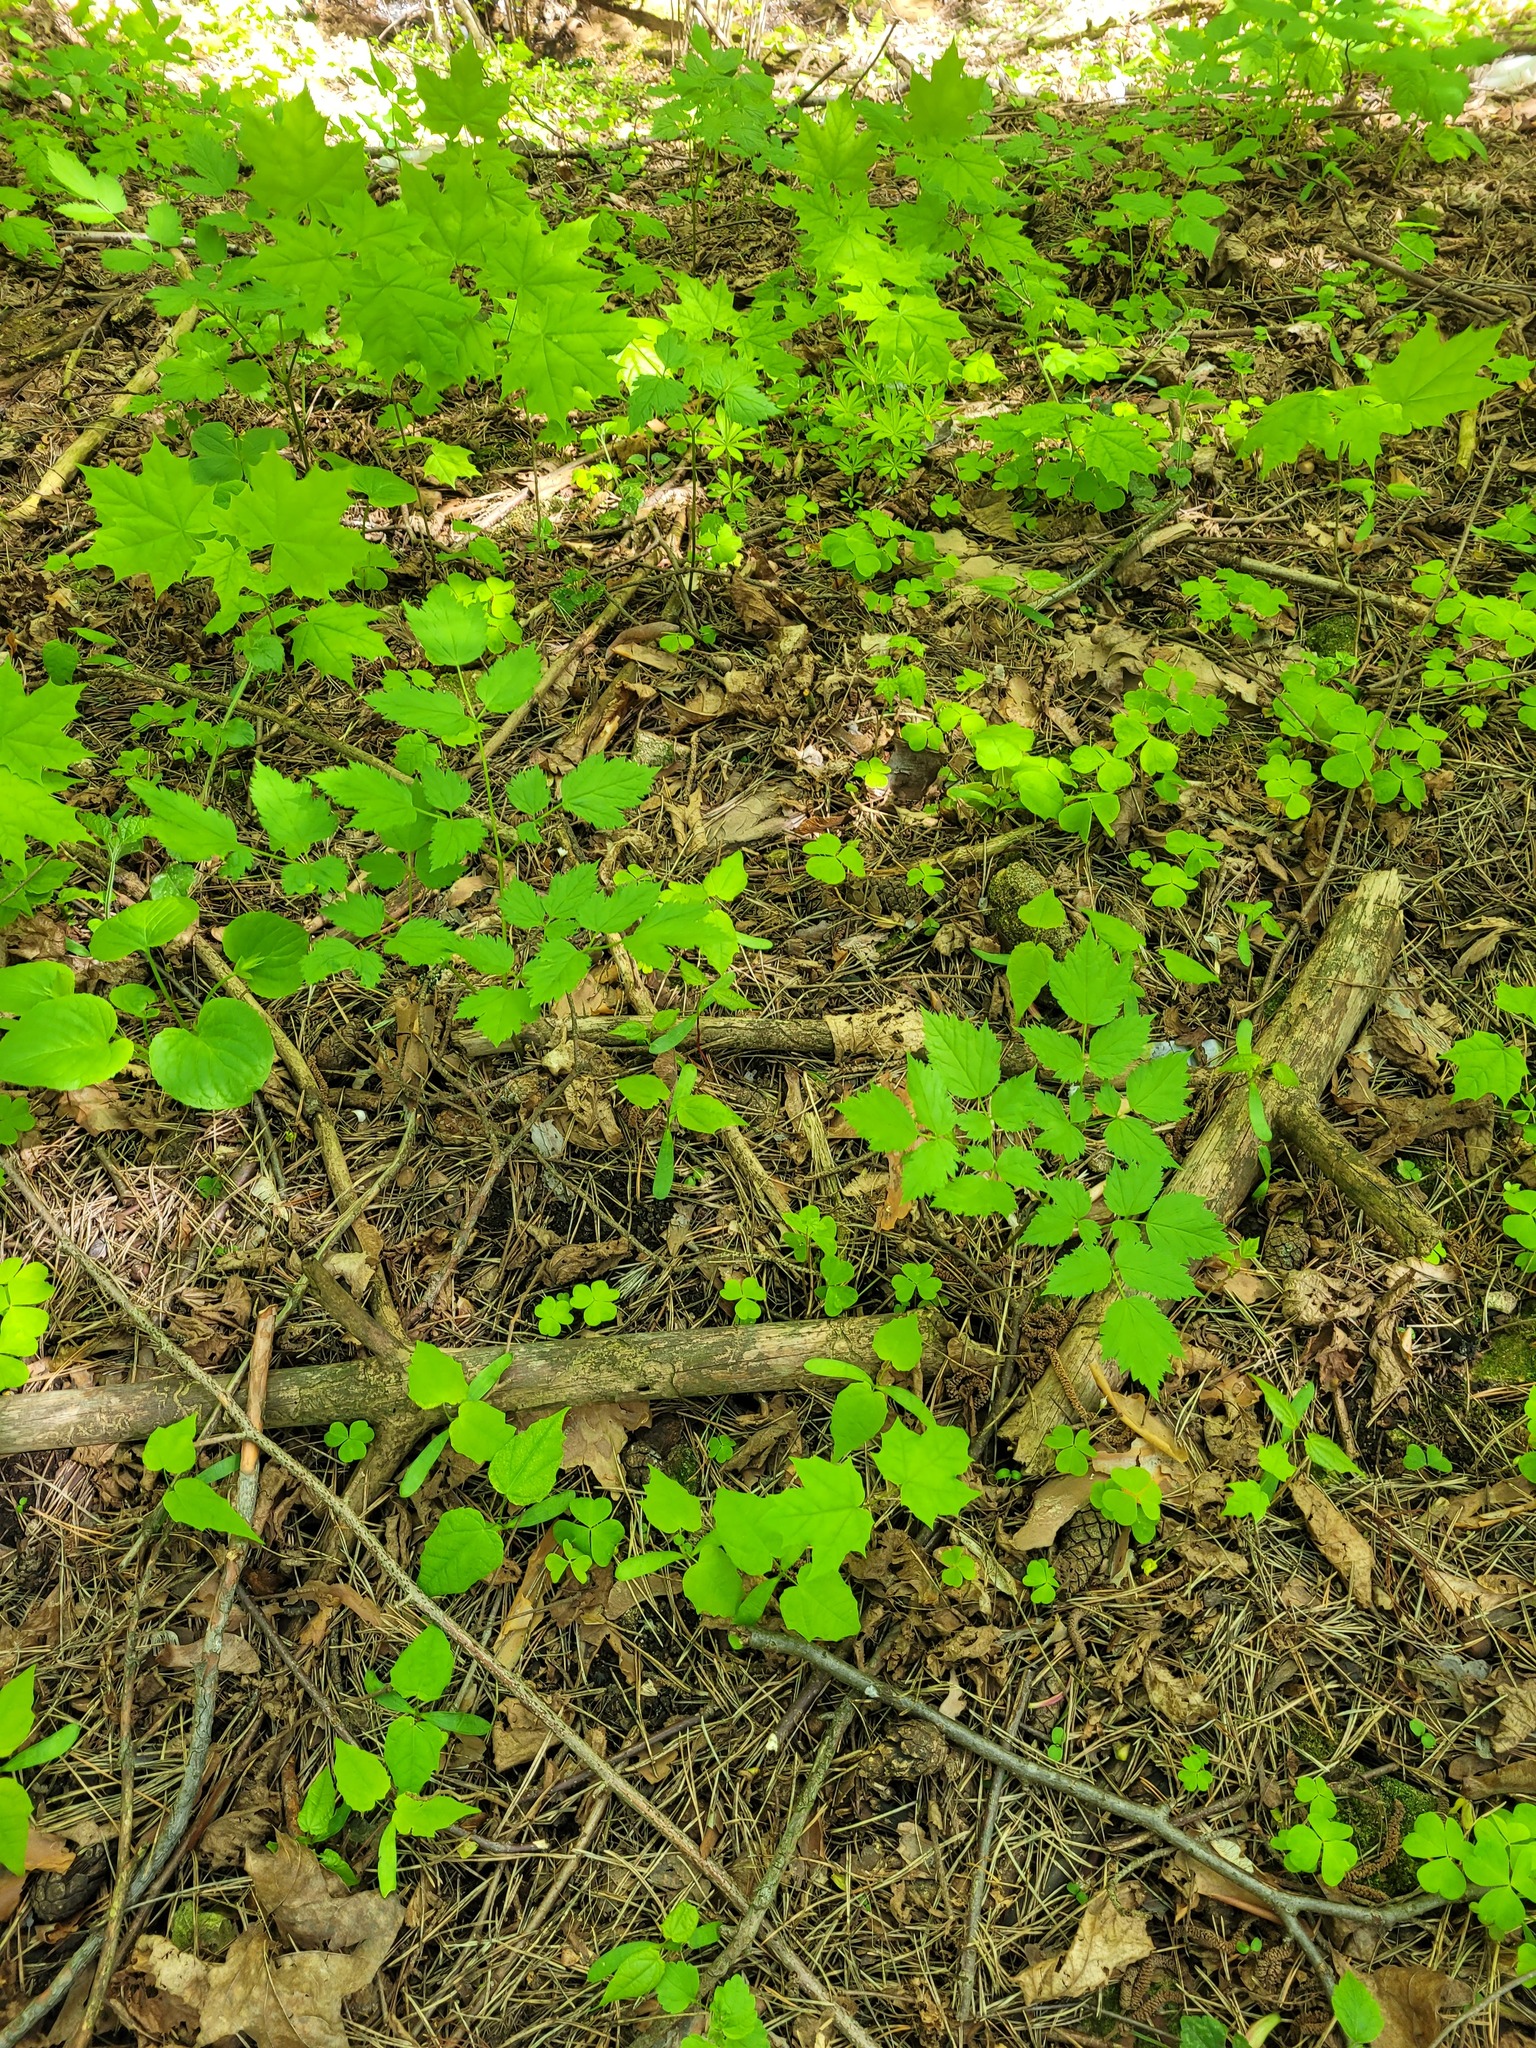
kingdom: Plantae
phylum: Tracheophyta
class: Magnoliopsida
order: Ranunculales
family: Ranunculaceae
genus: Actaea
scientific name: Actaea spicata
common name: Baneberry
